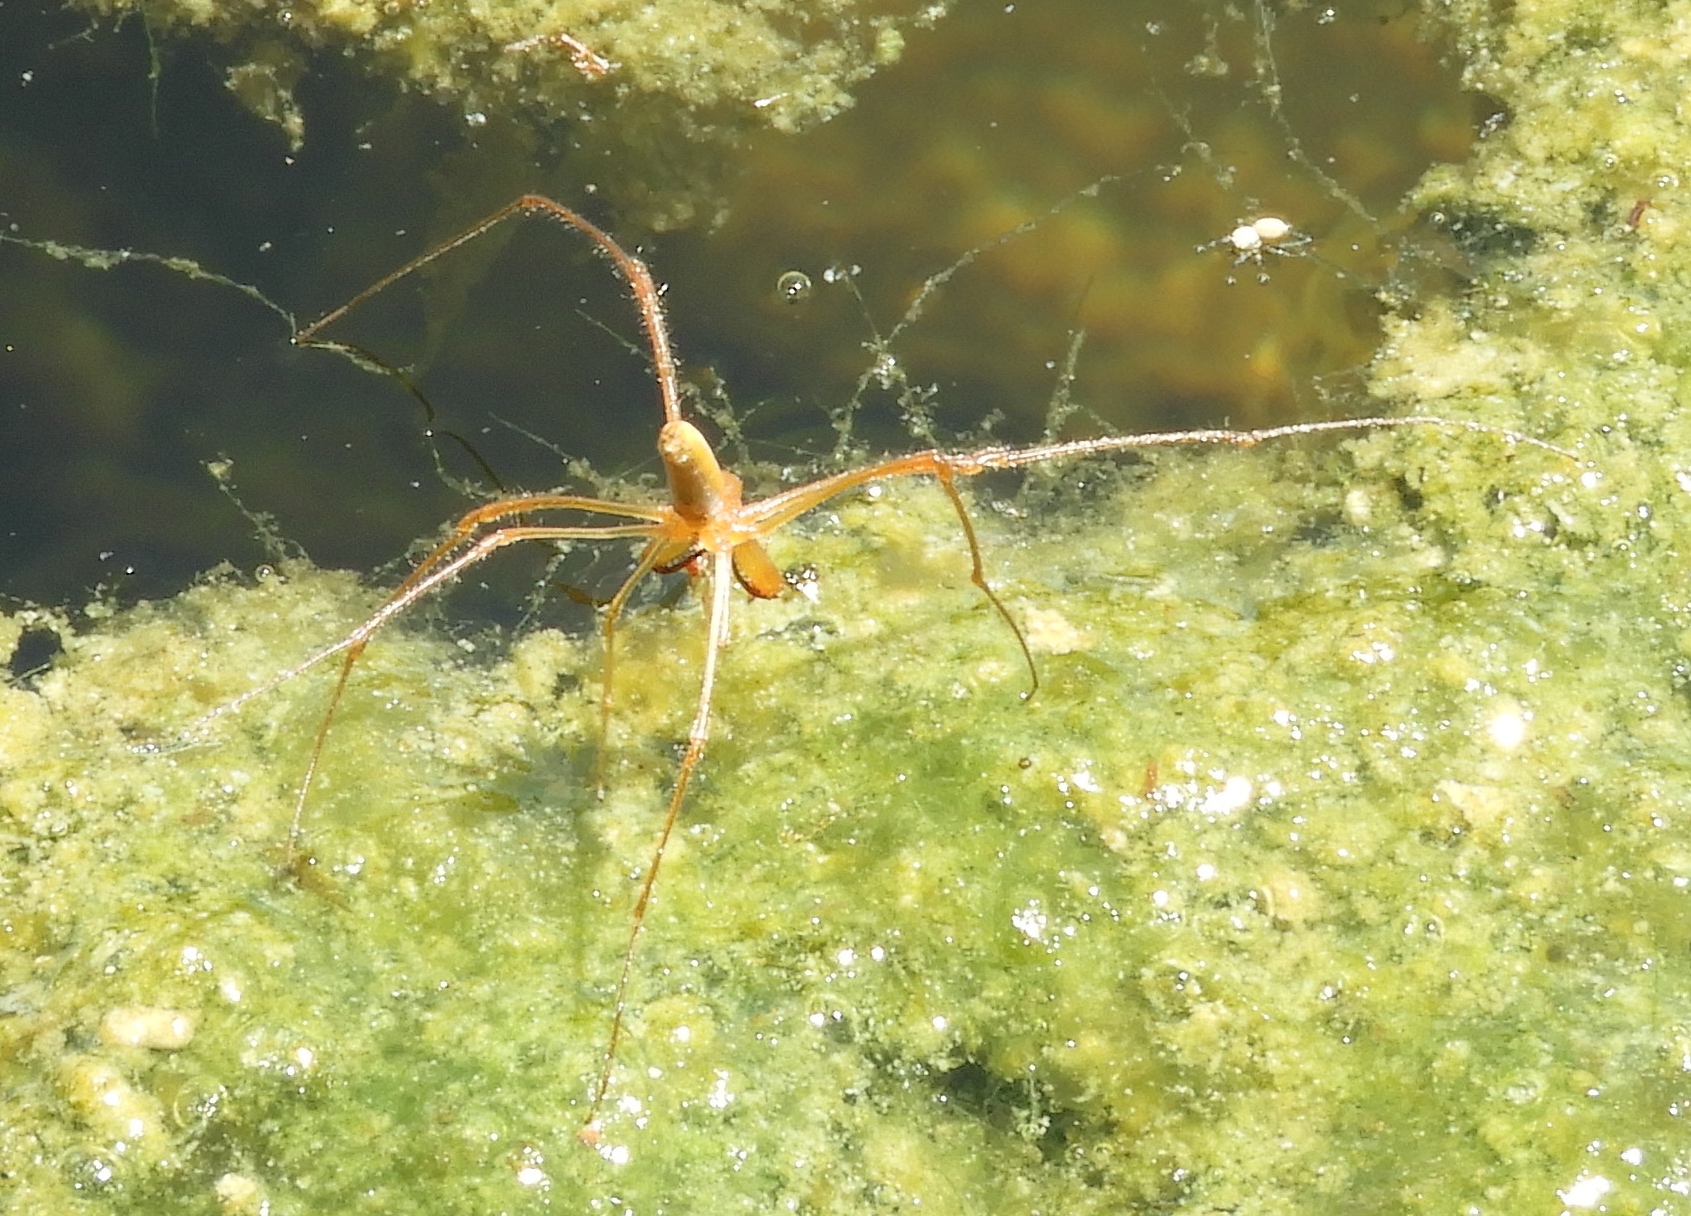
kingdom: Animalia
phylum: Arthropoda
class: Arachnida
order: Araneae
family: Tetragnathidae
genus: Tetragnatha
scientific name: Tetragnatha
